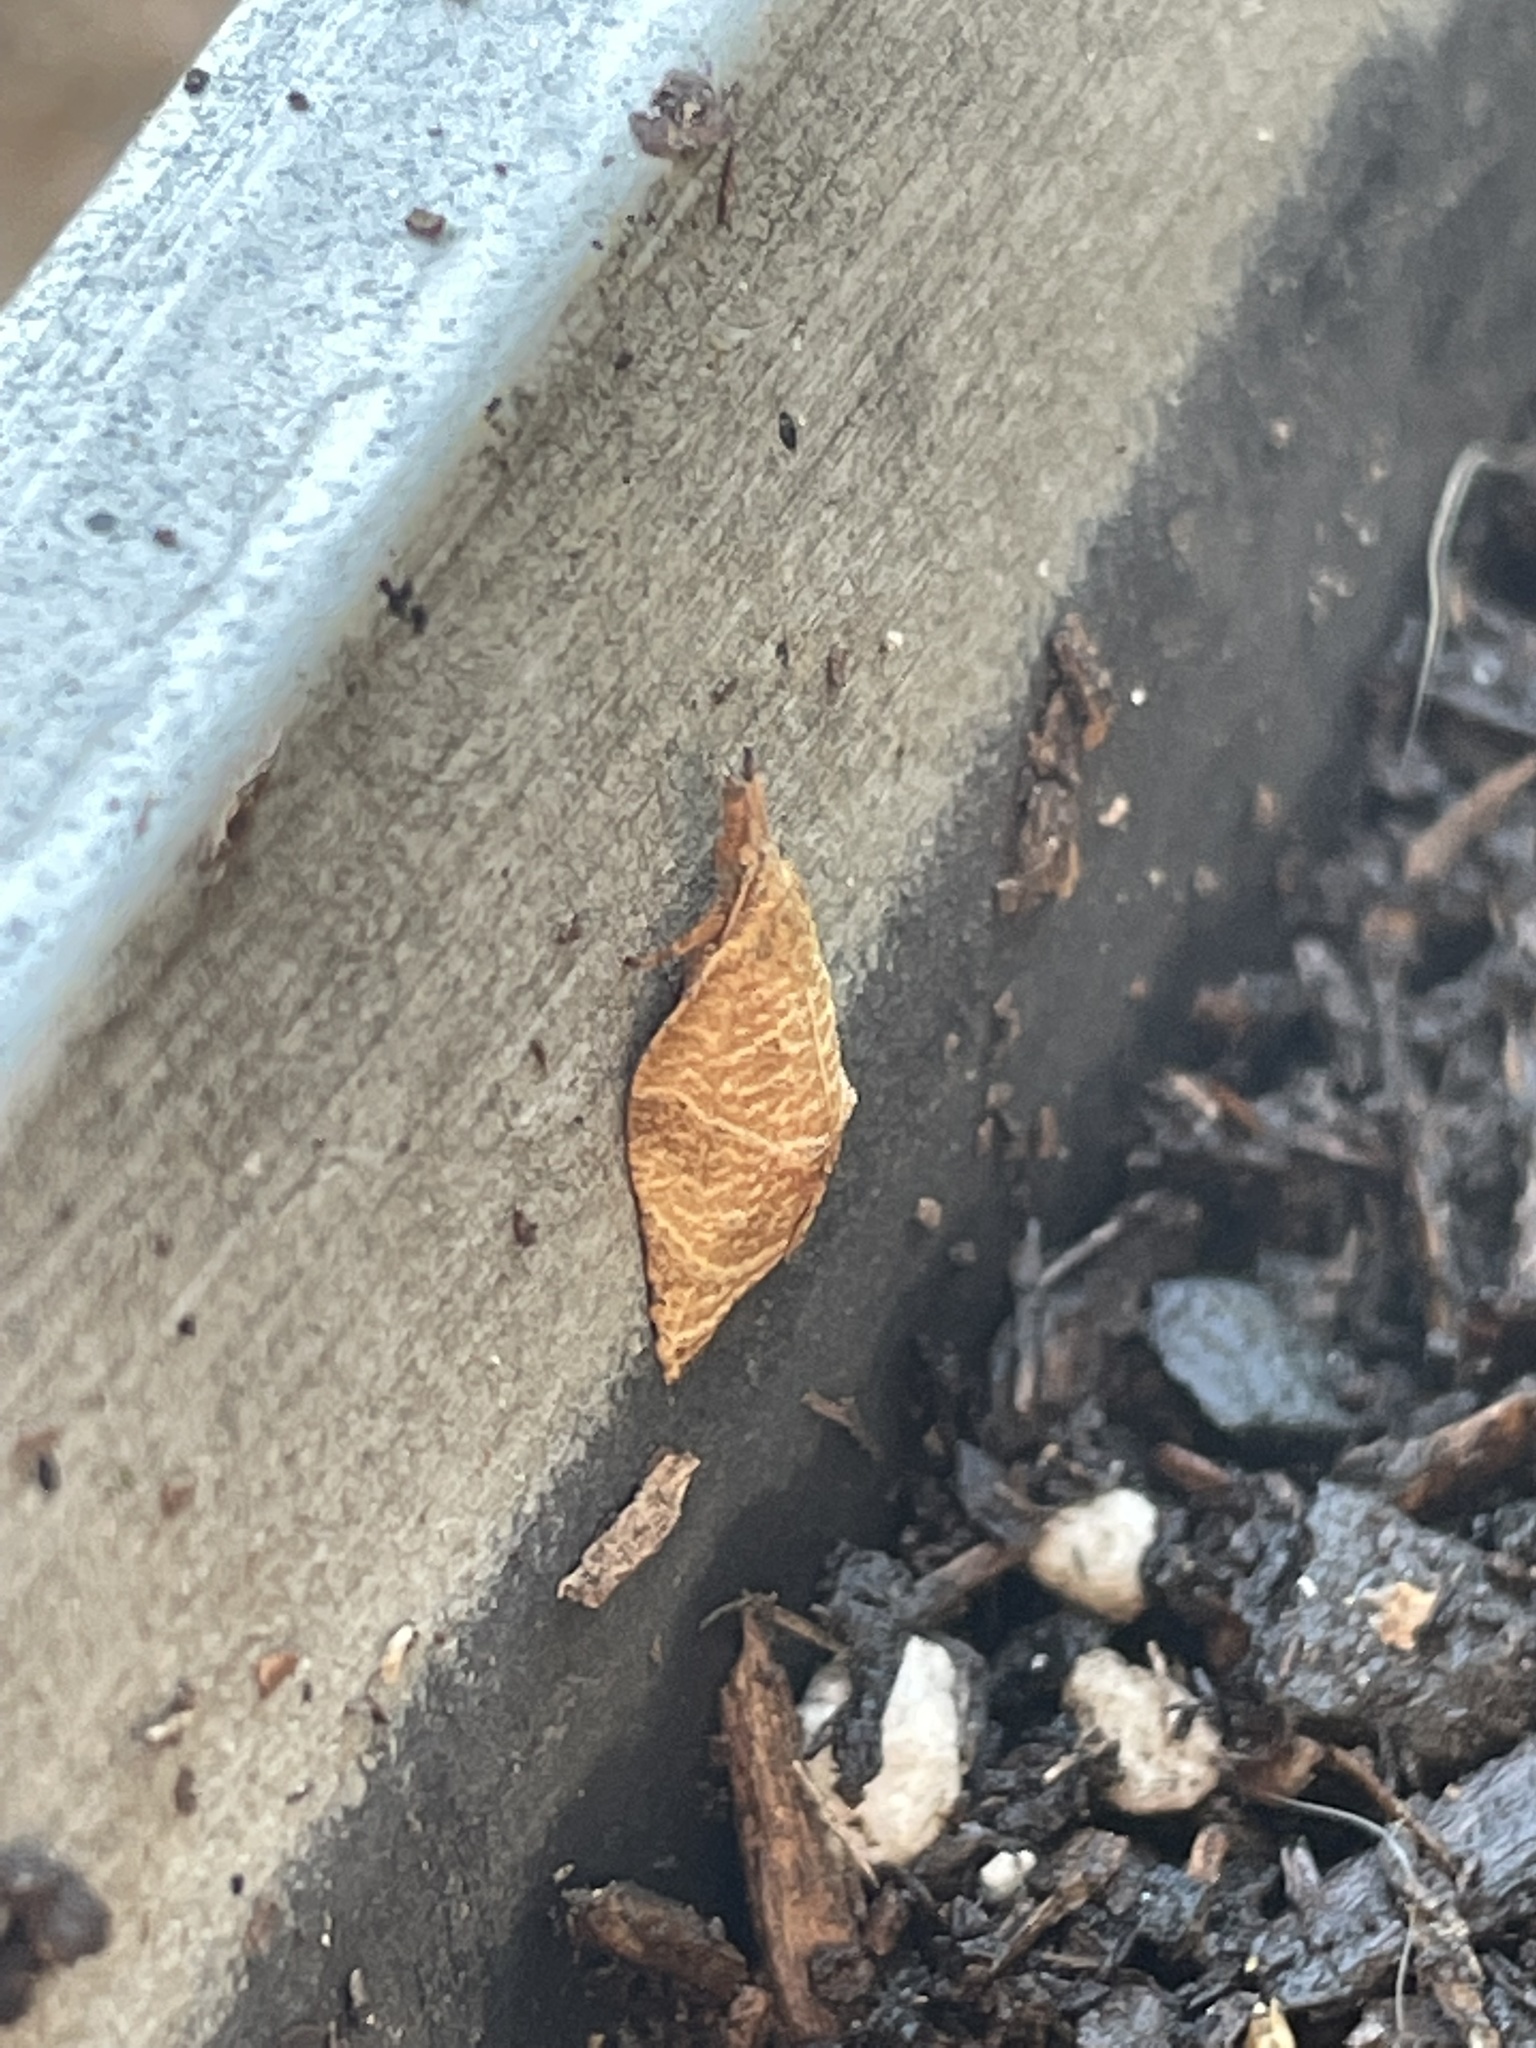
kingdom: Animalia
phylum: Arthropoda
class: Insecta
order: Lepidoptera
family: Tortricidae
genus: Platynota
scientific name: Platynota rostrana
